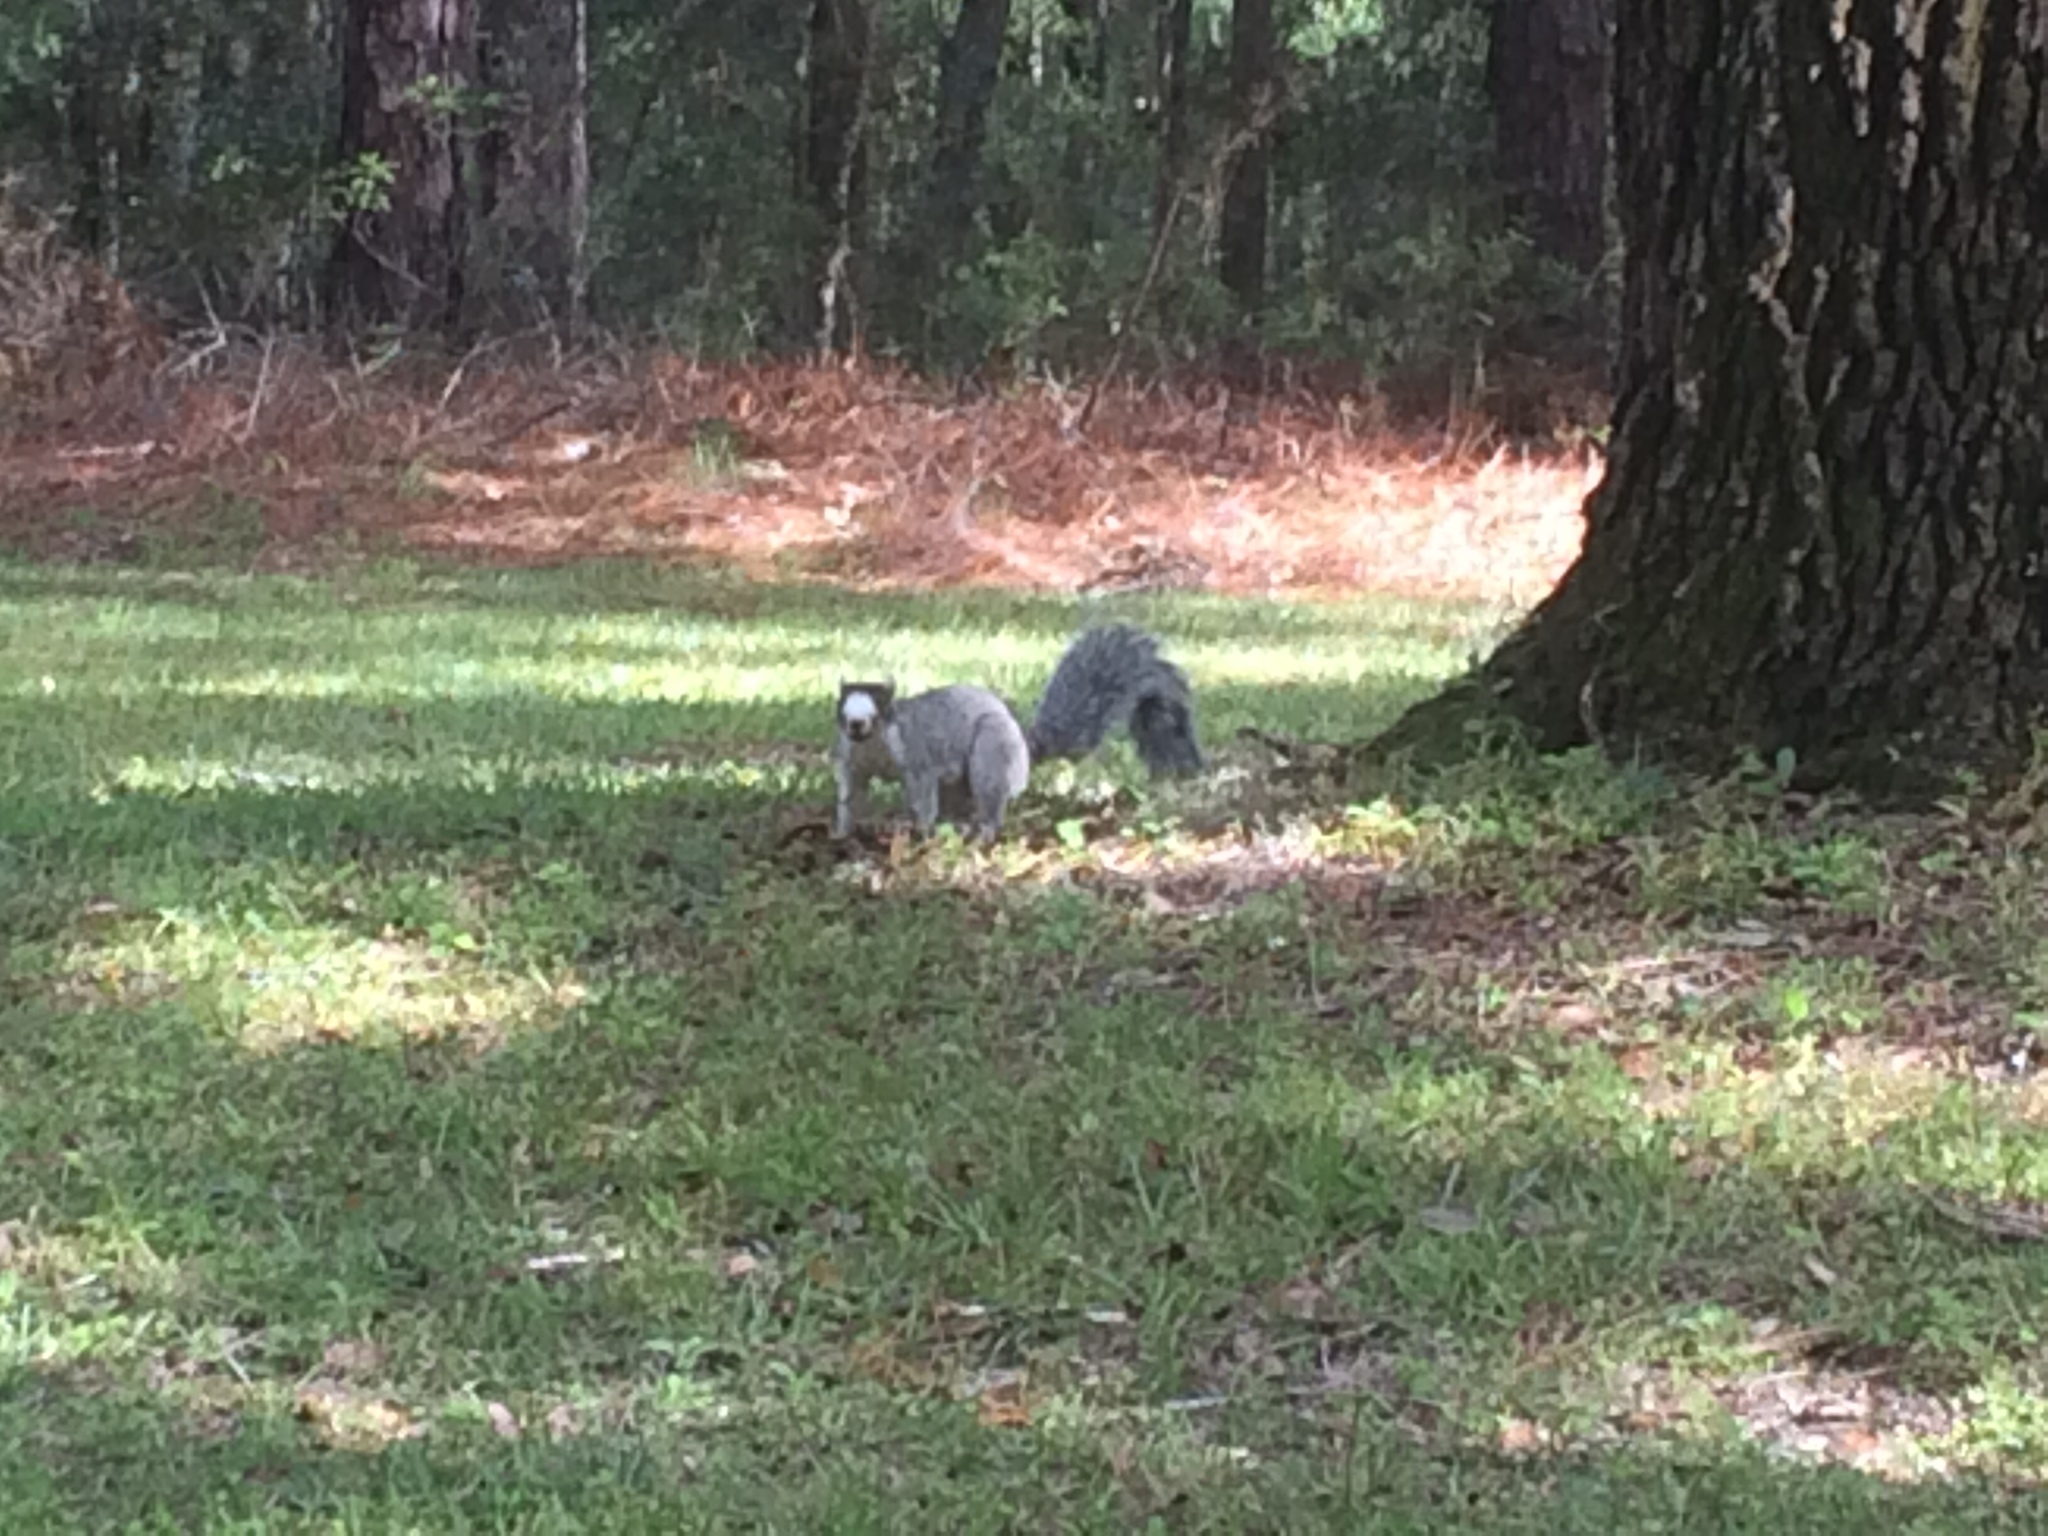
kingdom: Animalia
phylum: Chordata
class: Mammalia
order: Rodentia
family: Sciuridae
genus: Sciurus
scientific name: Sciurus niger
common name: Fox squirrel
